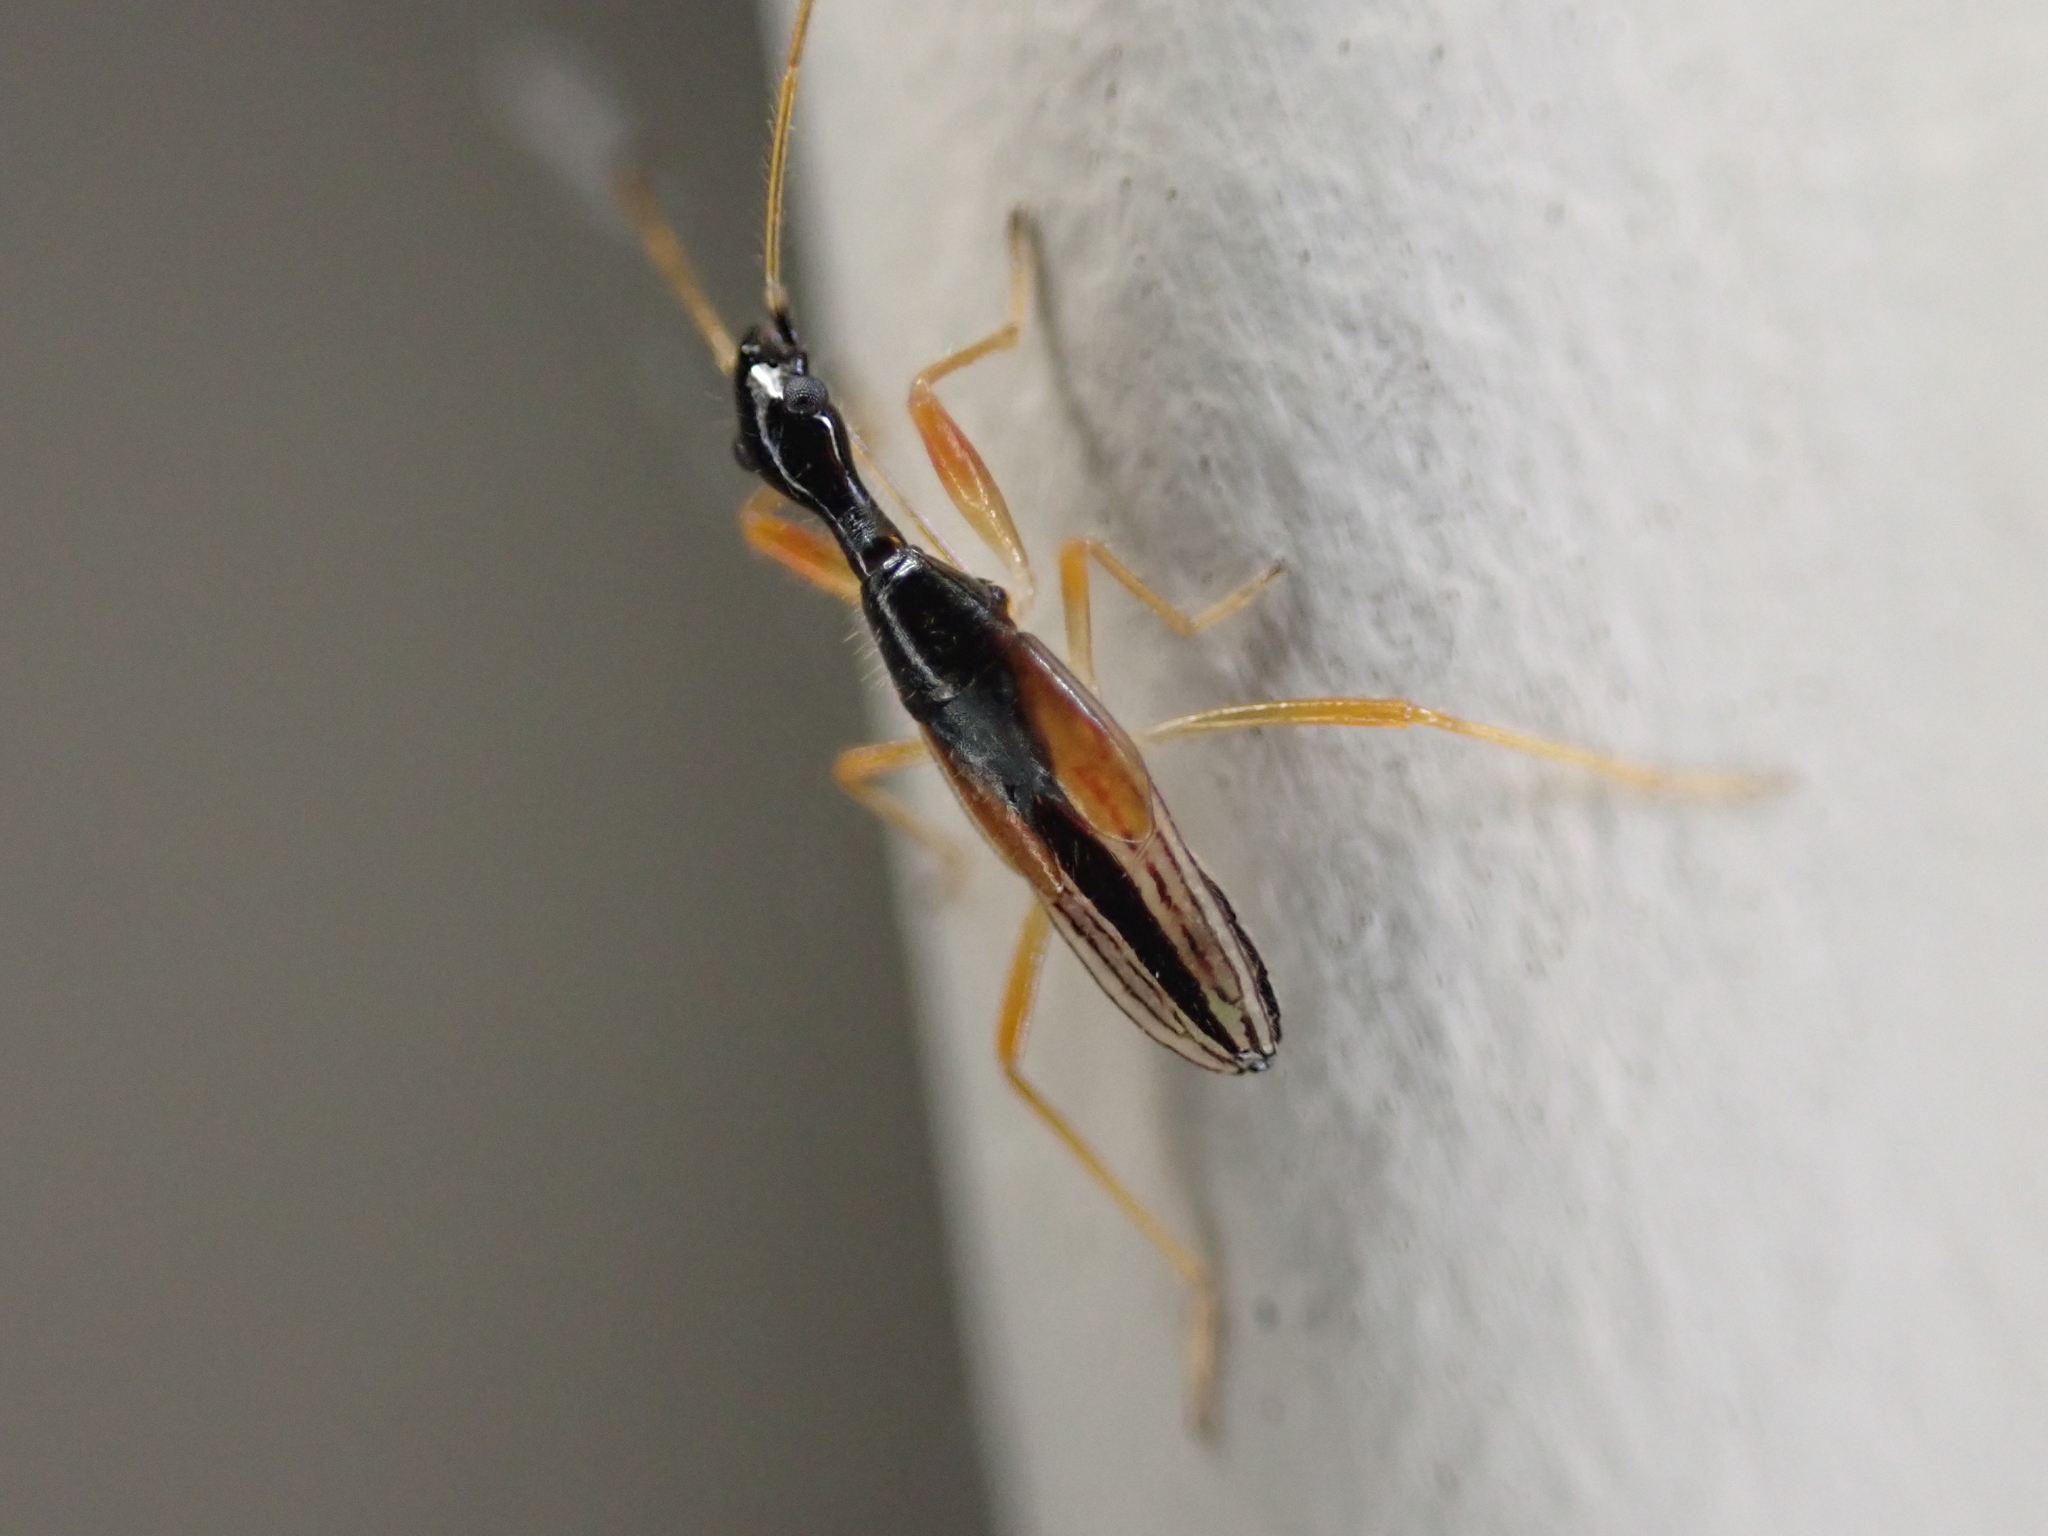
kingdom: Animalia
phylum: Arthropoda
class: Insecta
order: Hemiptera
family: Rhyparochromidae
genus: Myodocha
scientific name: Myodocha serripes
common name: Long-necked seed bug
